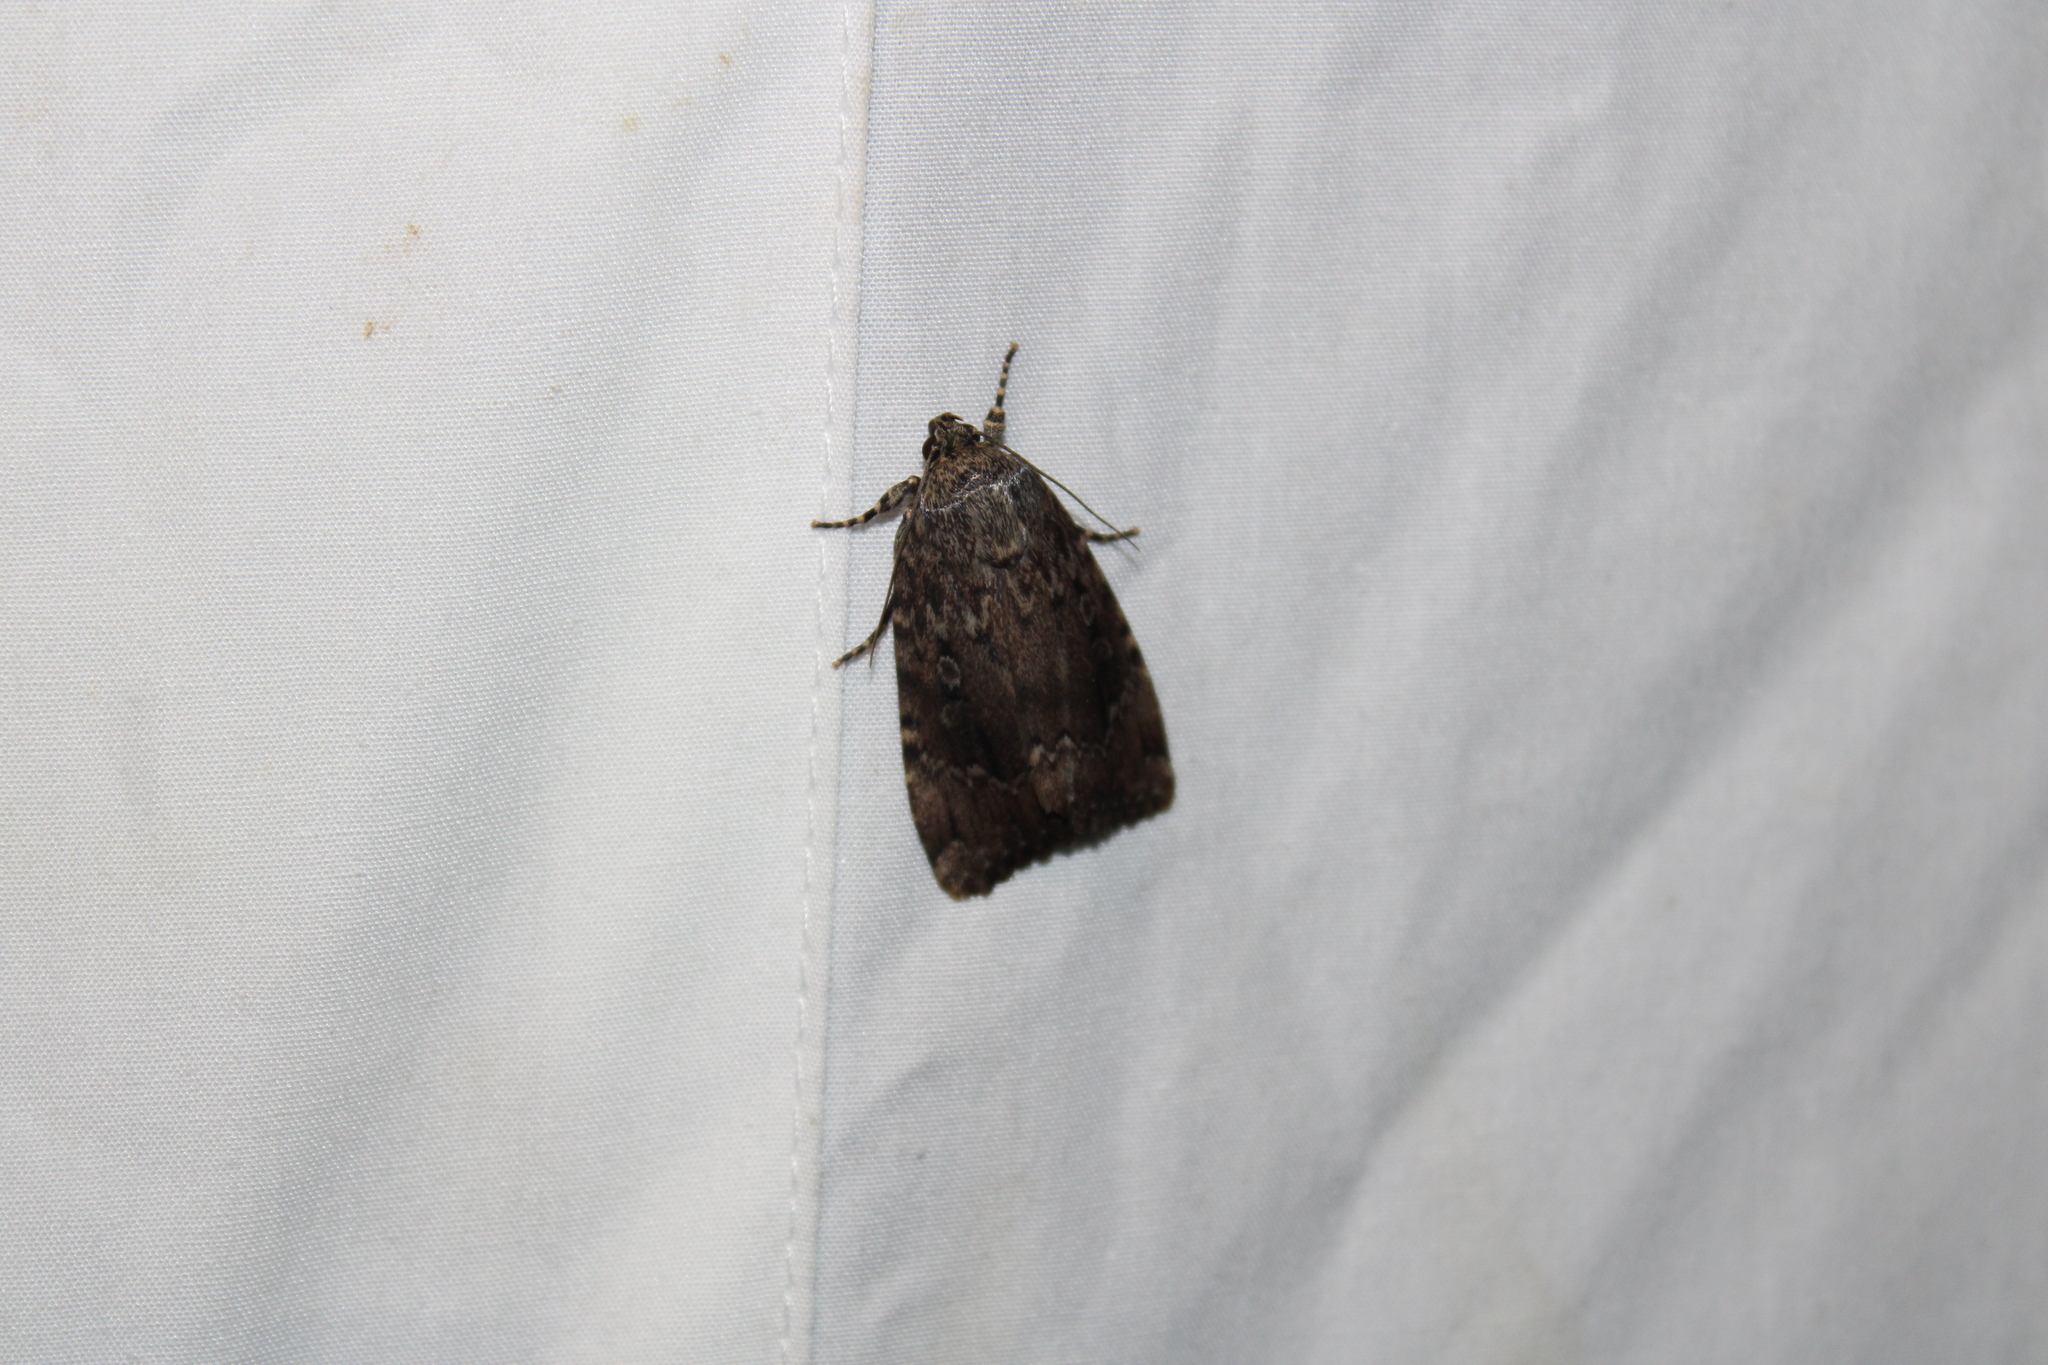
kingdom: Animalia
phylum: Arthropoda
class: Insecta
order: Lepidoptera
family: Noctuidae
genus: Amphipyra
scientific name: Amphipyra pyramidoides
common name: American copper underwing
